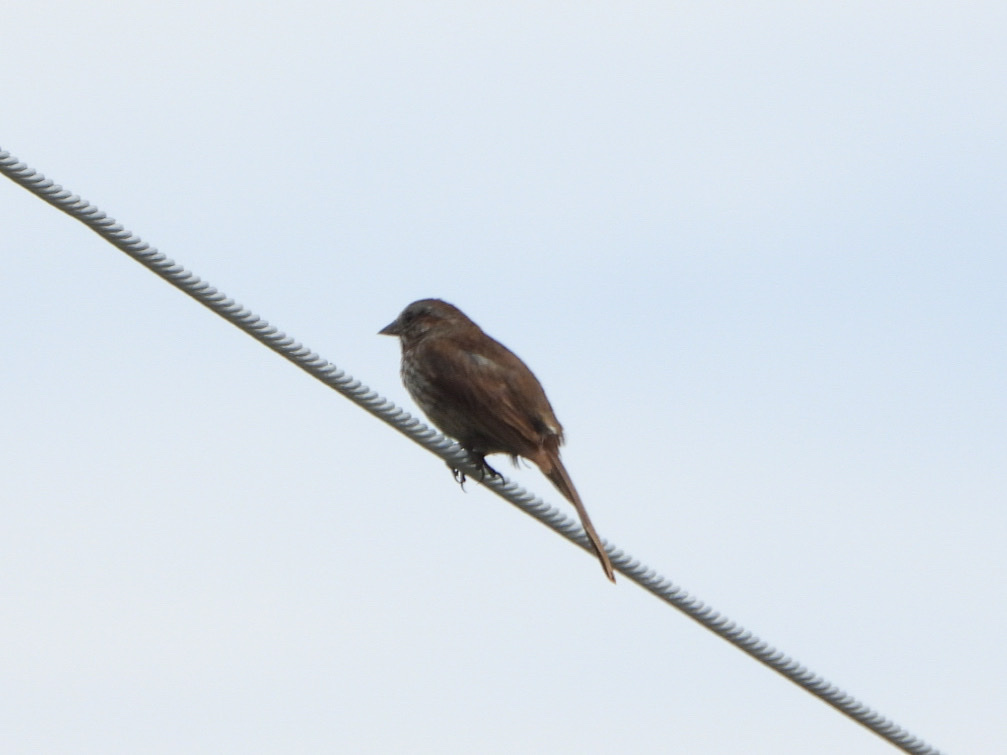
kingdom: Animalia
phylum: Chordata
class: Aves
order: Passeriformes
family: Passerellidae
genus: Melospiza
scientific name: Melospiza melodia
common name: Song sparrow
